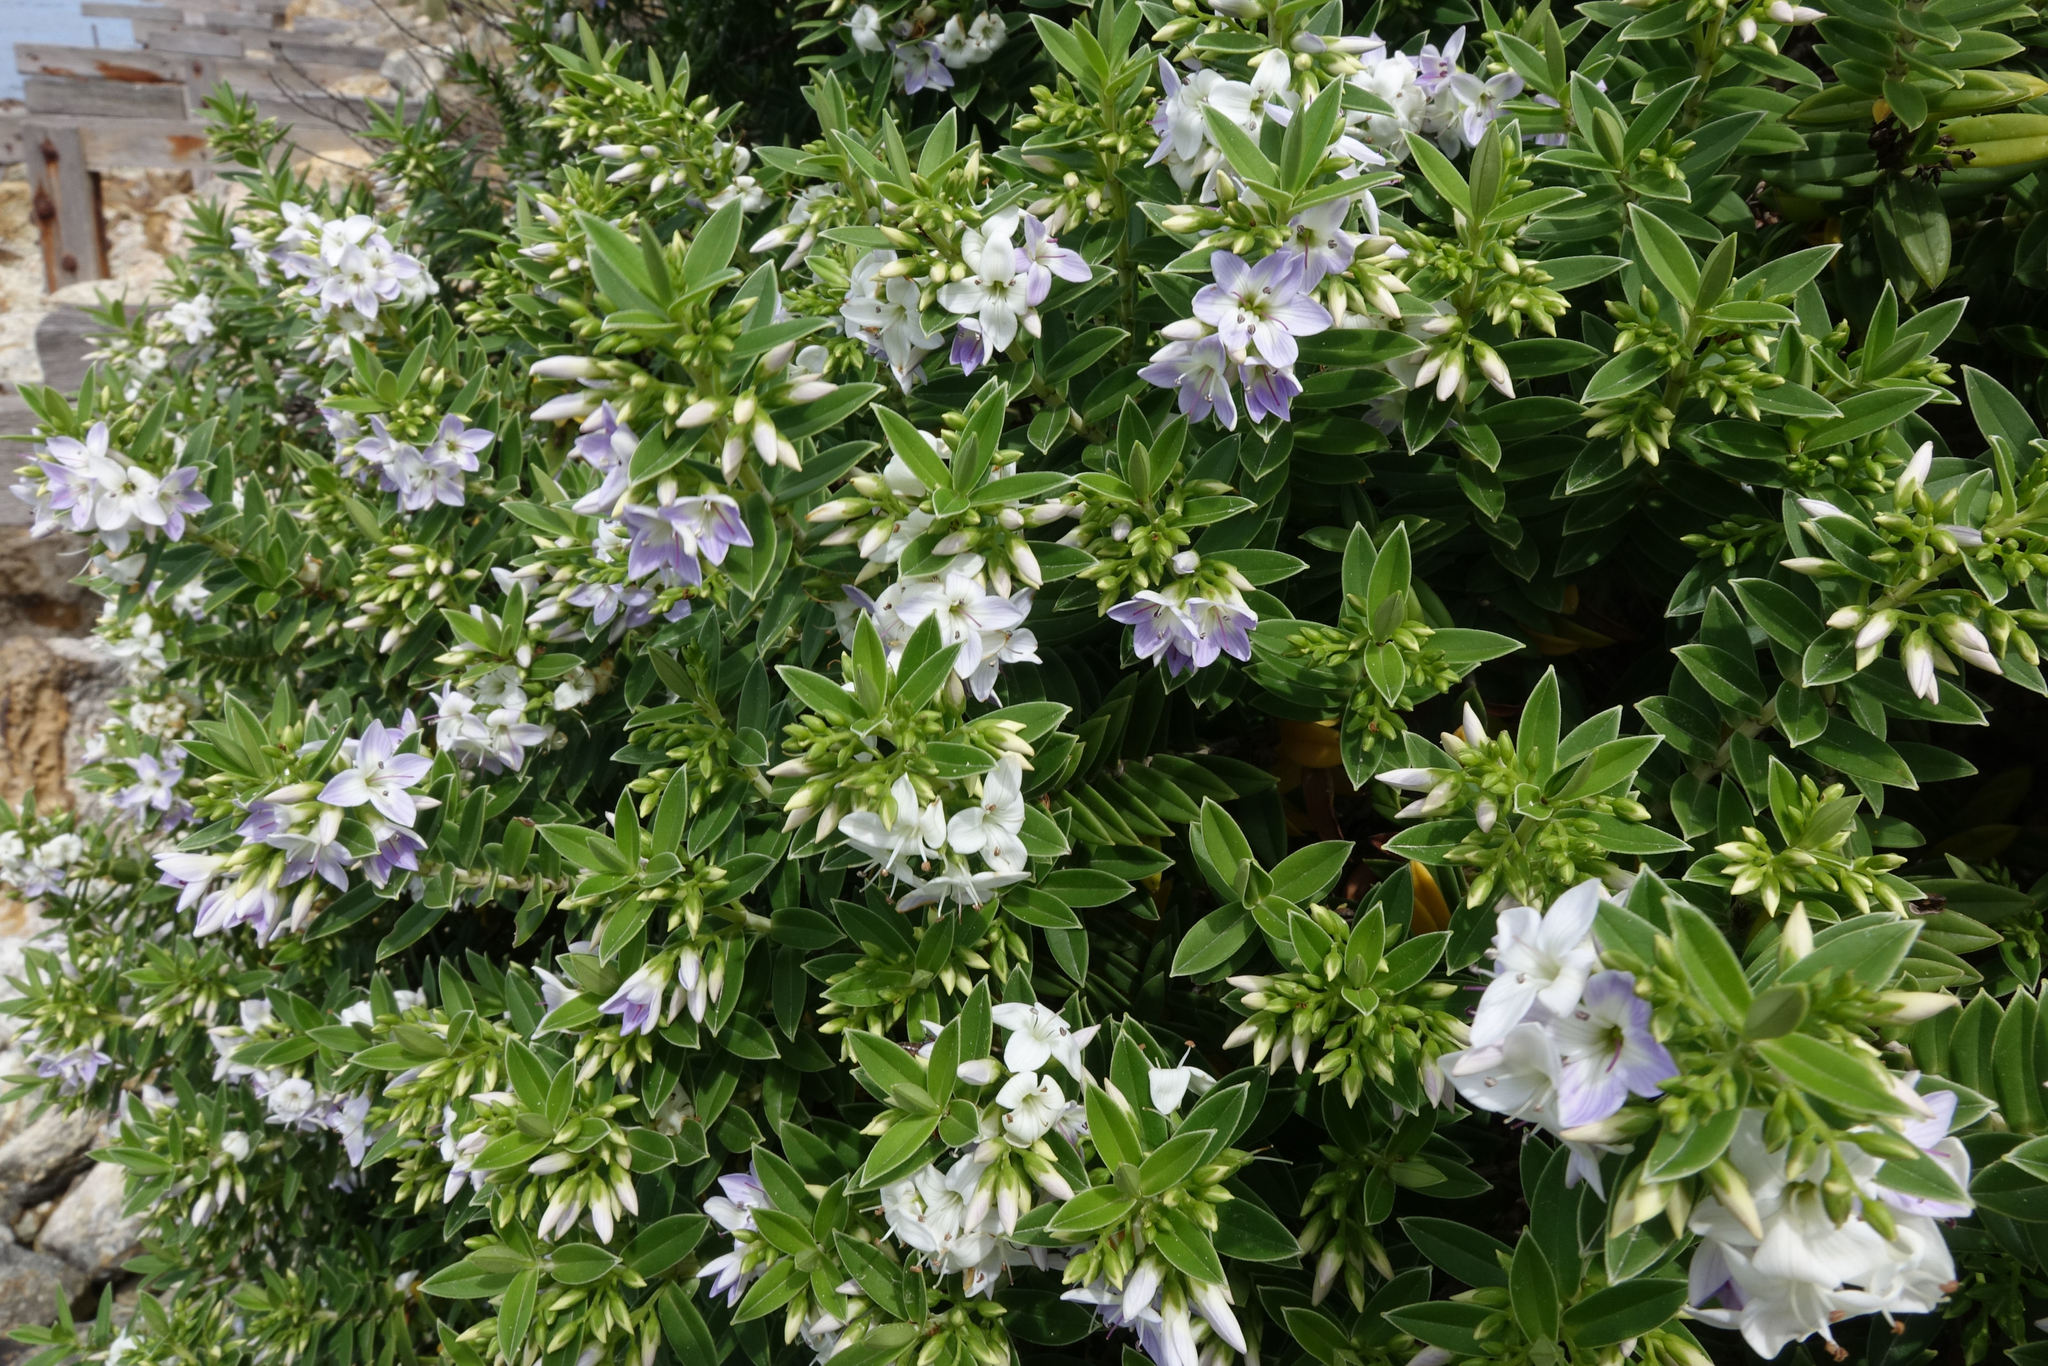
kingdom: Plantae
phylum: Tracheophyta
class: Magnoliopsida
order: Lamiales
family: Plantaginaceae
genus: Veronica
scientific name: Veronica elliptica
